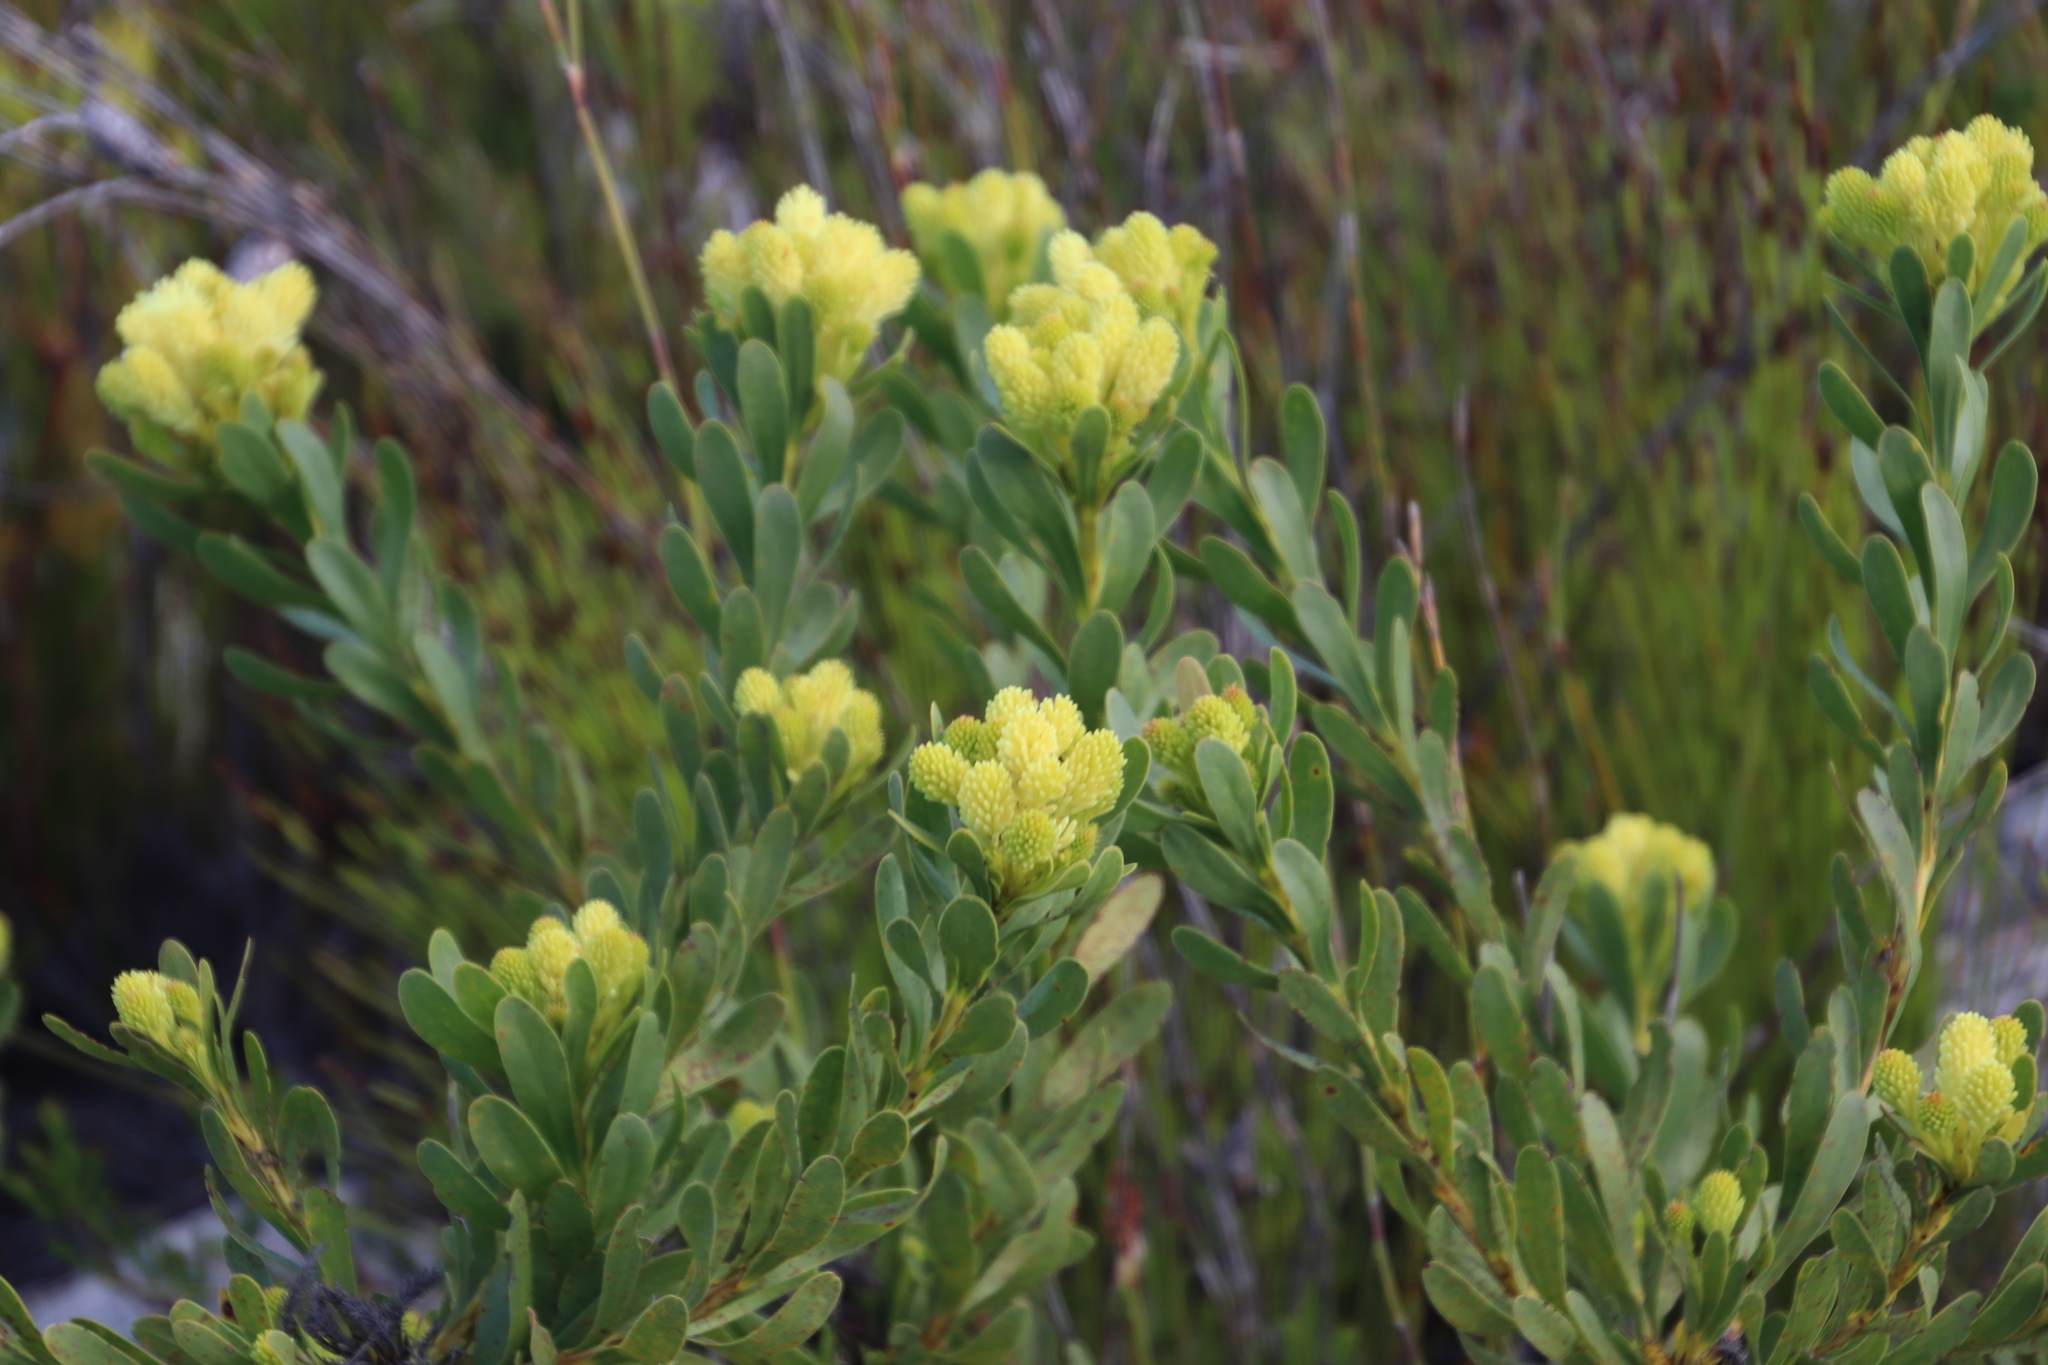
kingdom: Plantae
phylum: Tracheophyta
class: Magnoliopsida
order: Proteales
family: Proteaceae
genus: Aulax
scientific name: Aulax umbellata
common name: Broad-leaf featherbush
